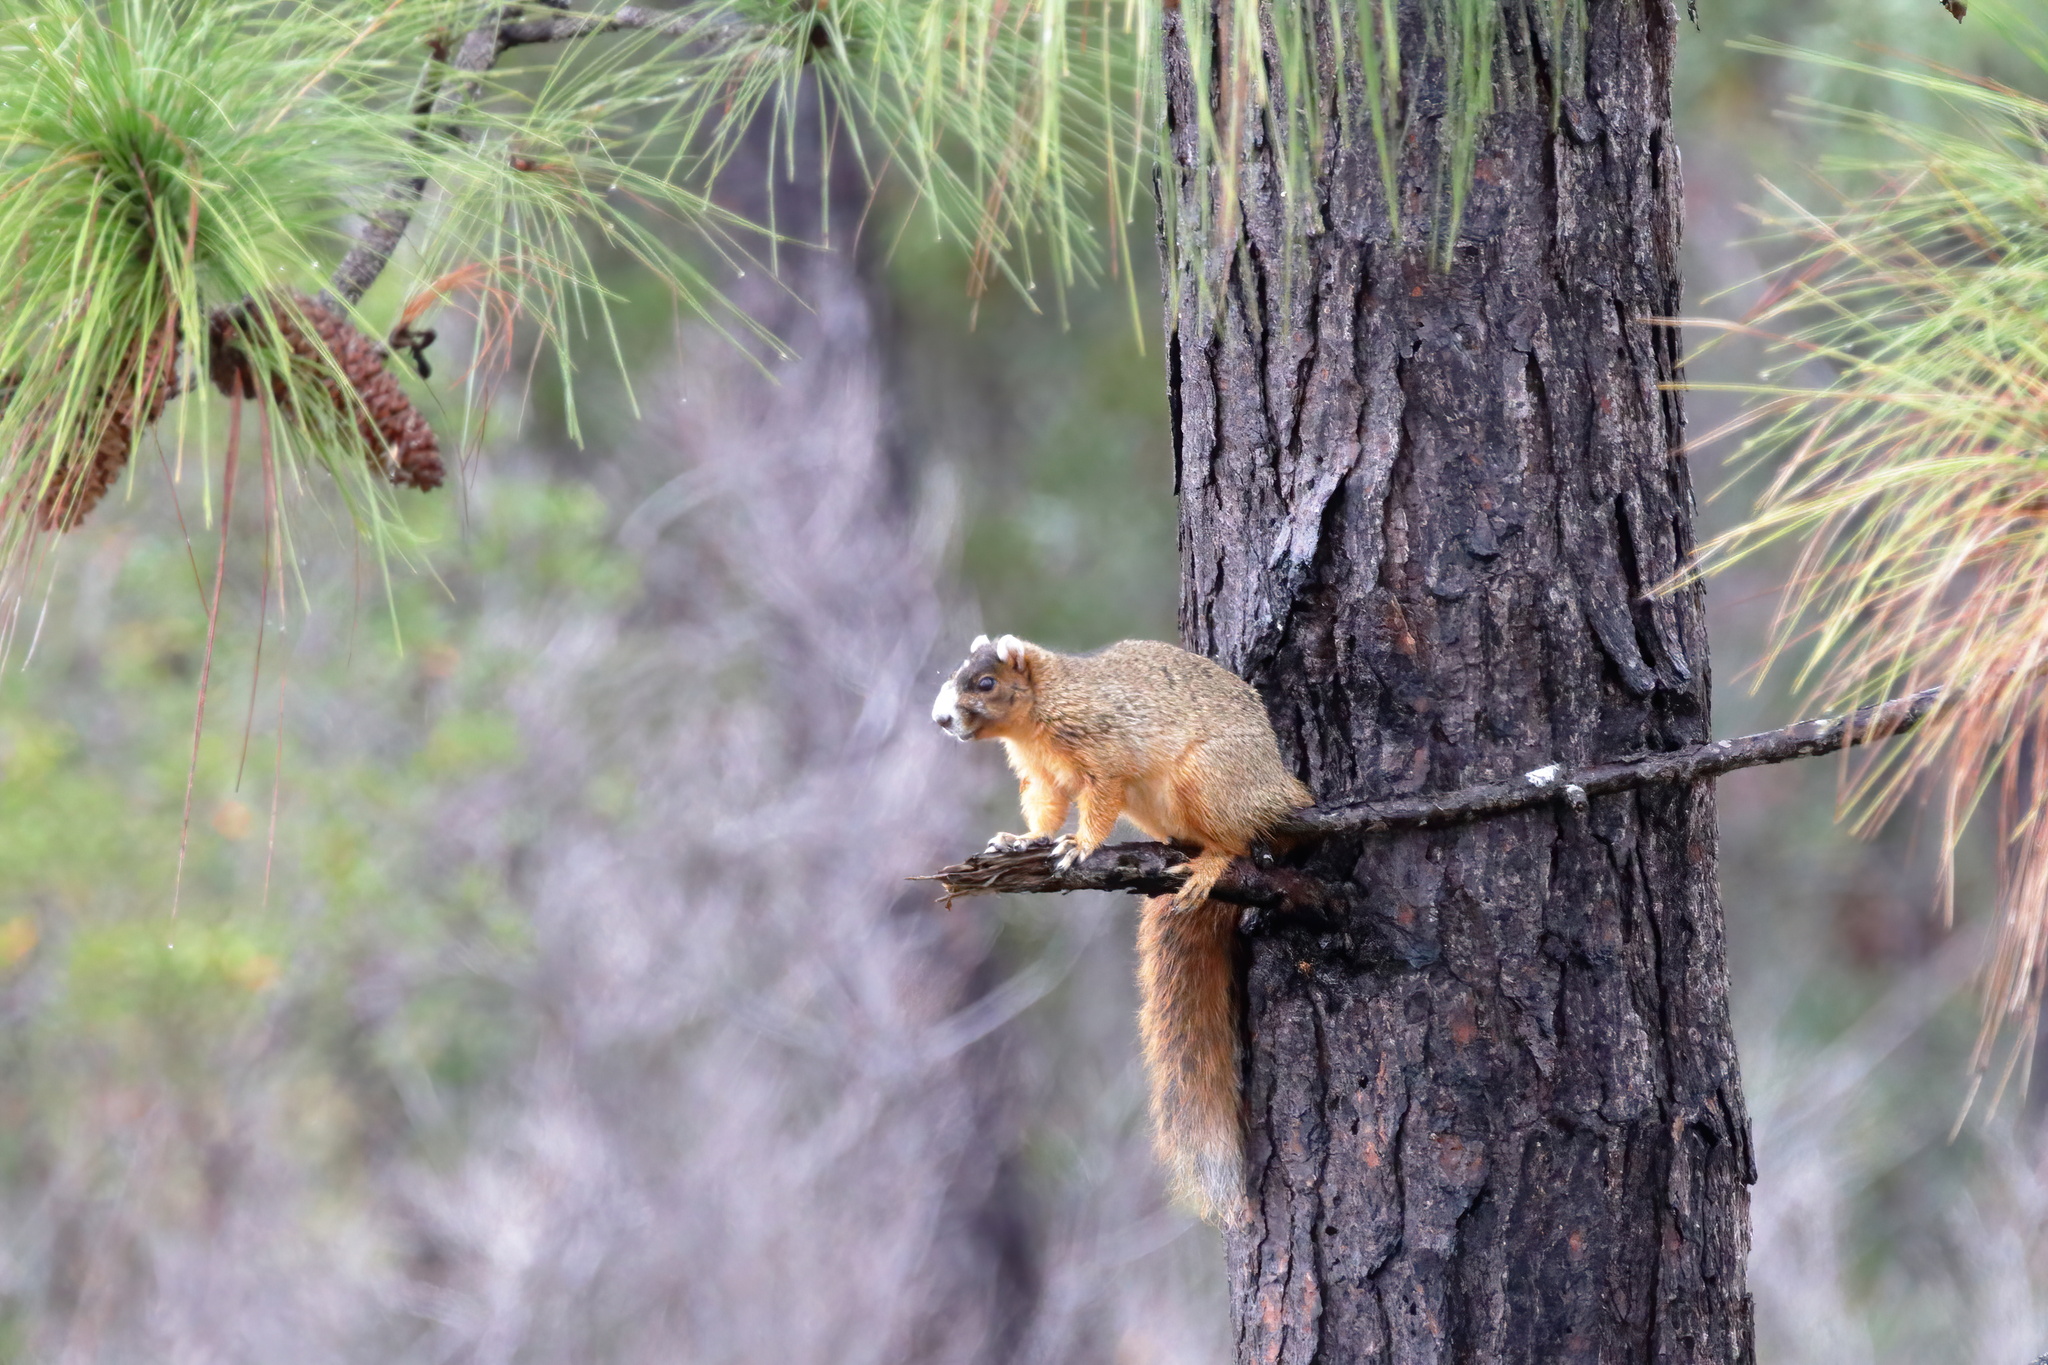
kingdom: Animalia
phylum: Chordata
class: Mammalia
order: Rodentia
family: Sciuridae
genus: Sciurus
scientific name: Sciurus niger
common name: Fox squirrel
